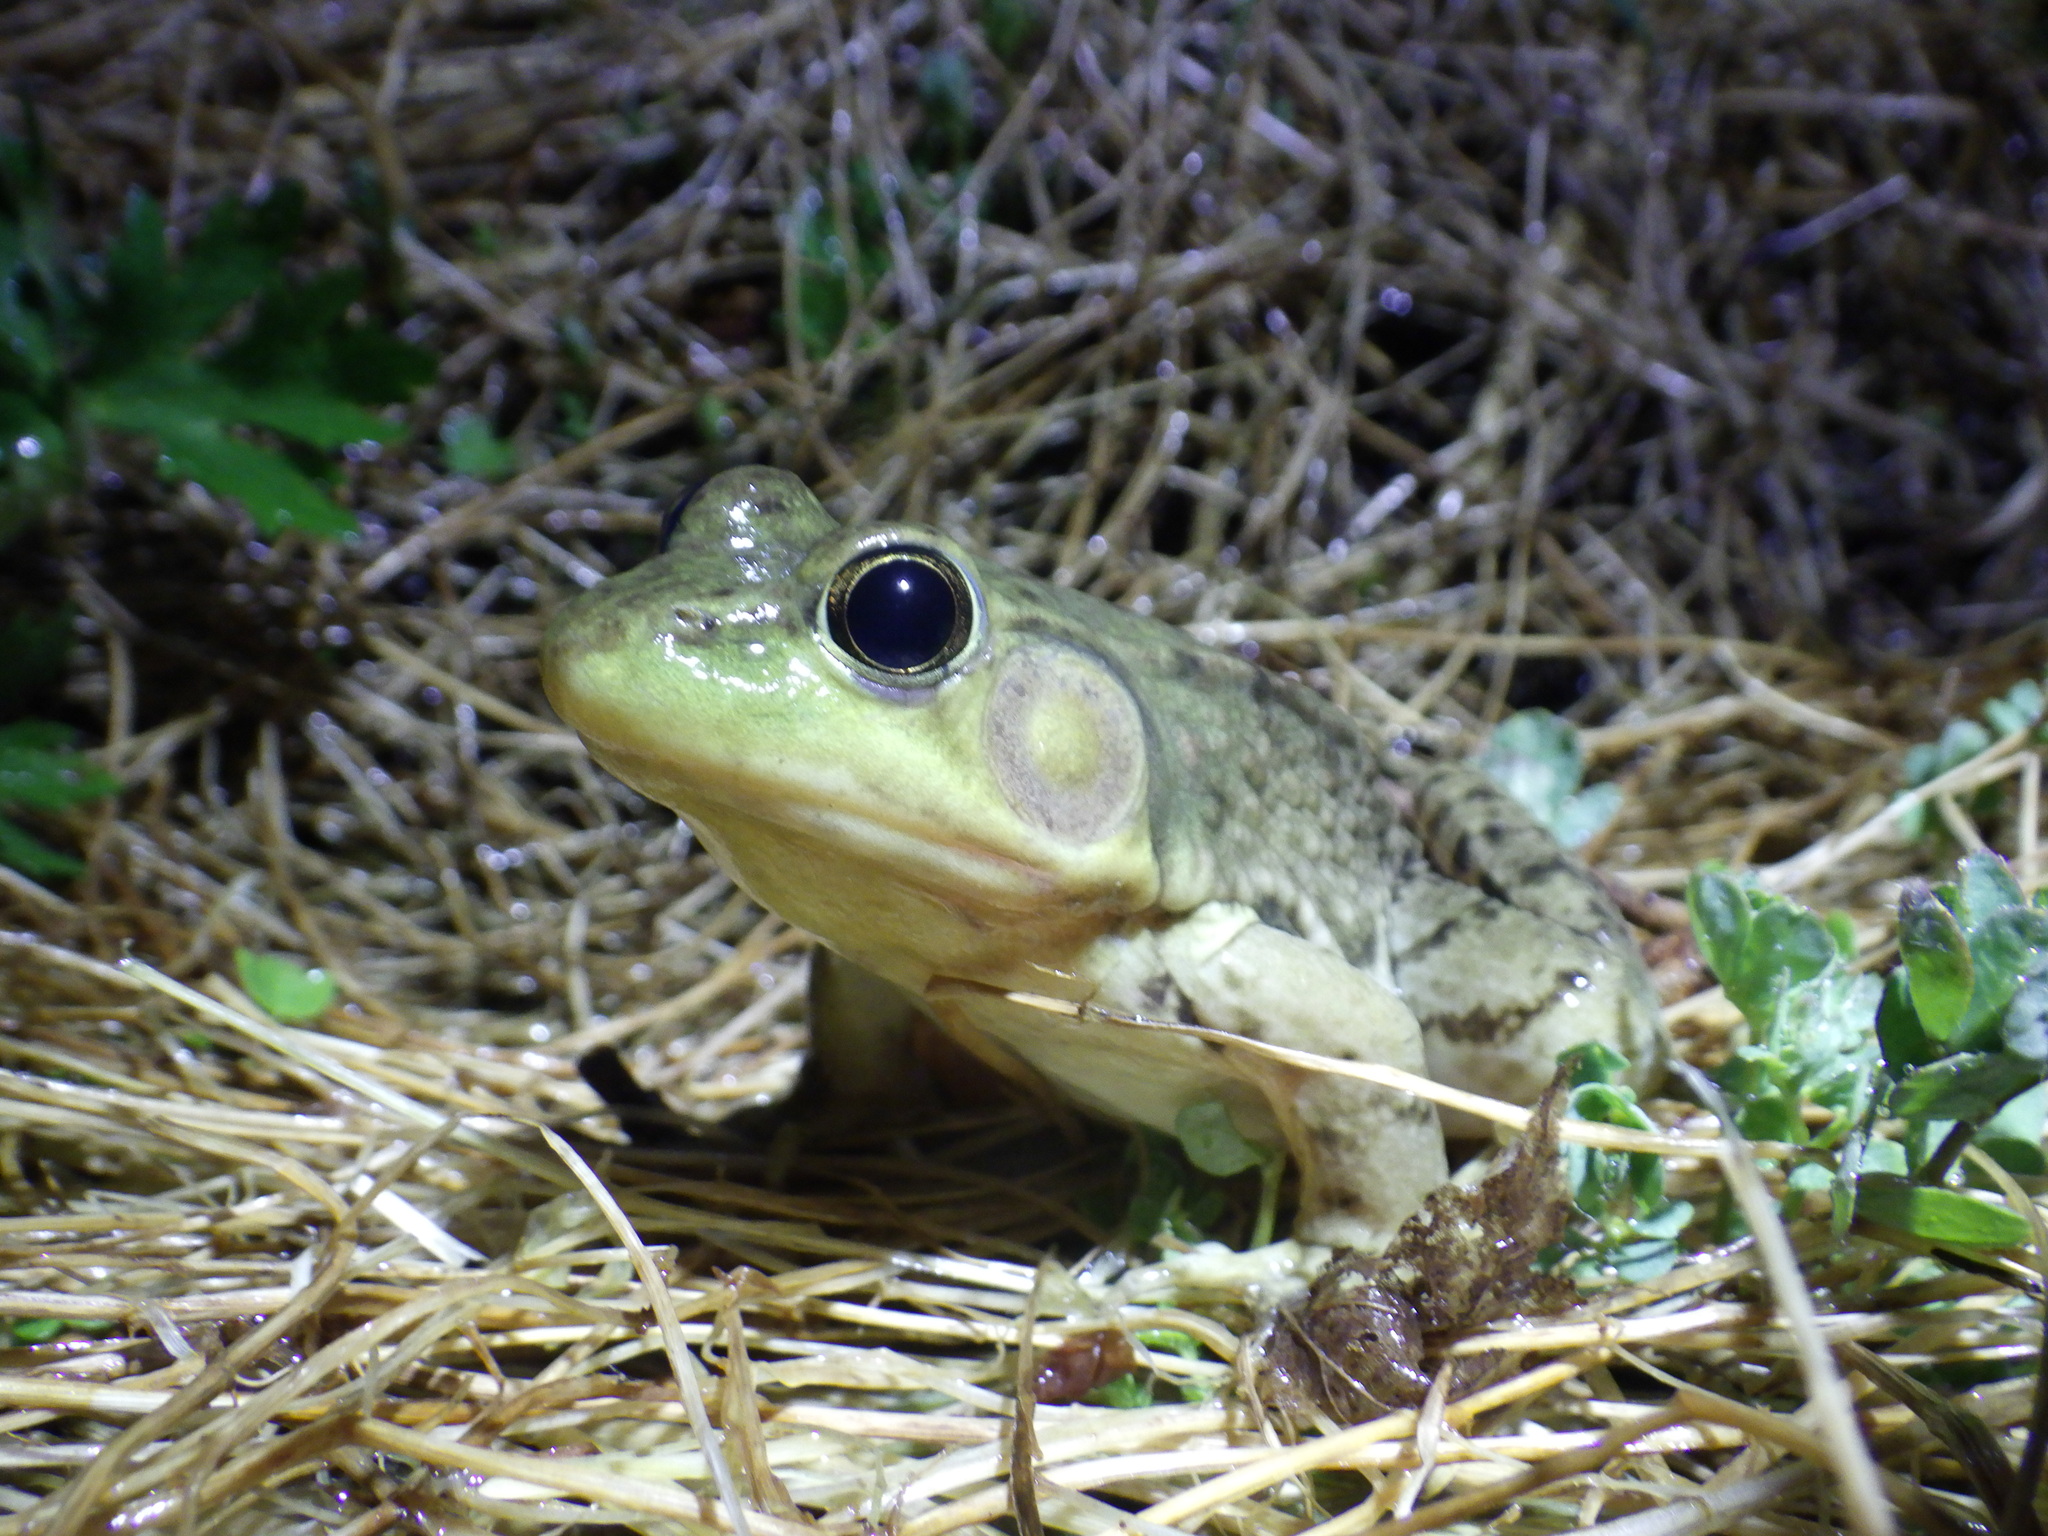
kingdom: Animalia
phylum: Chordata
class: Amphibia
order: Anura
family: Ranidae
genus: Lithobates
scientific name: Lithobates clamitans
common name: Green frog
